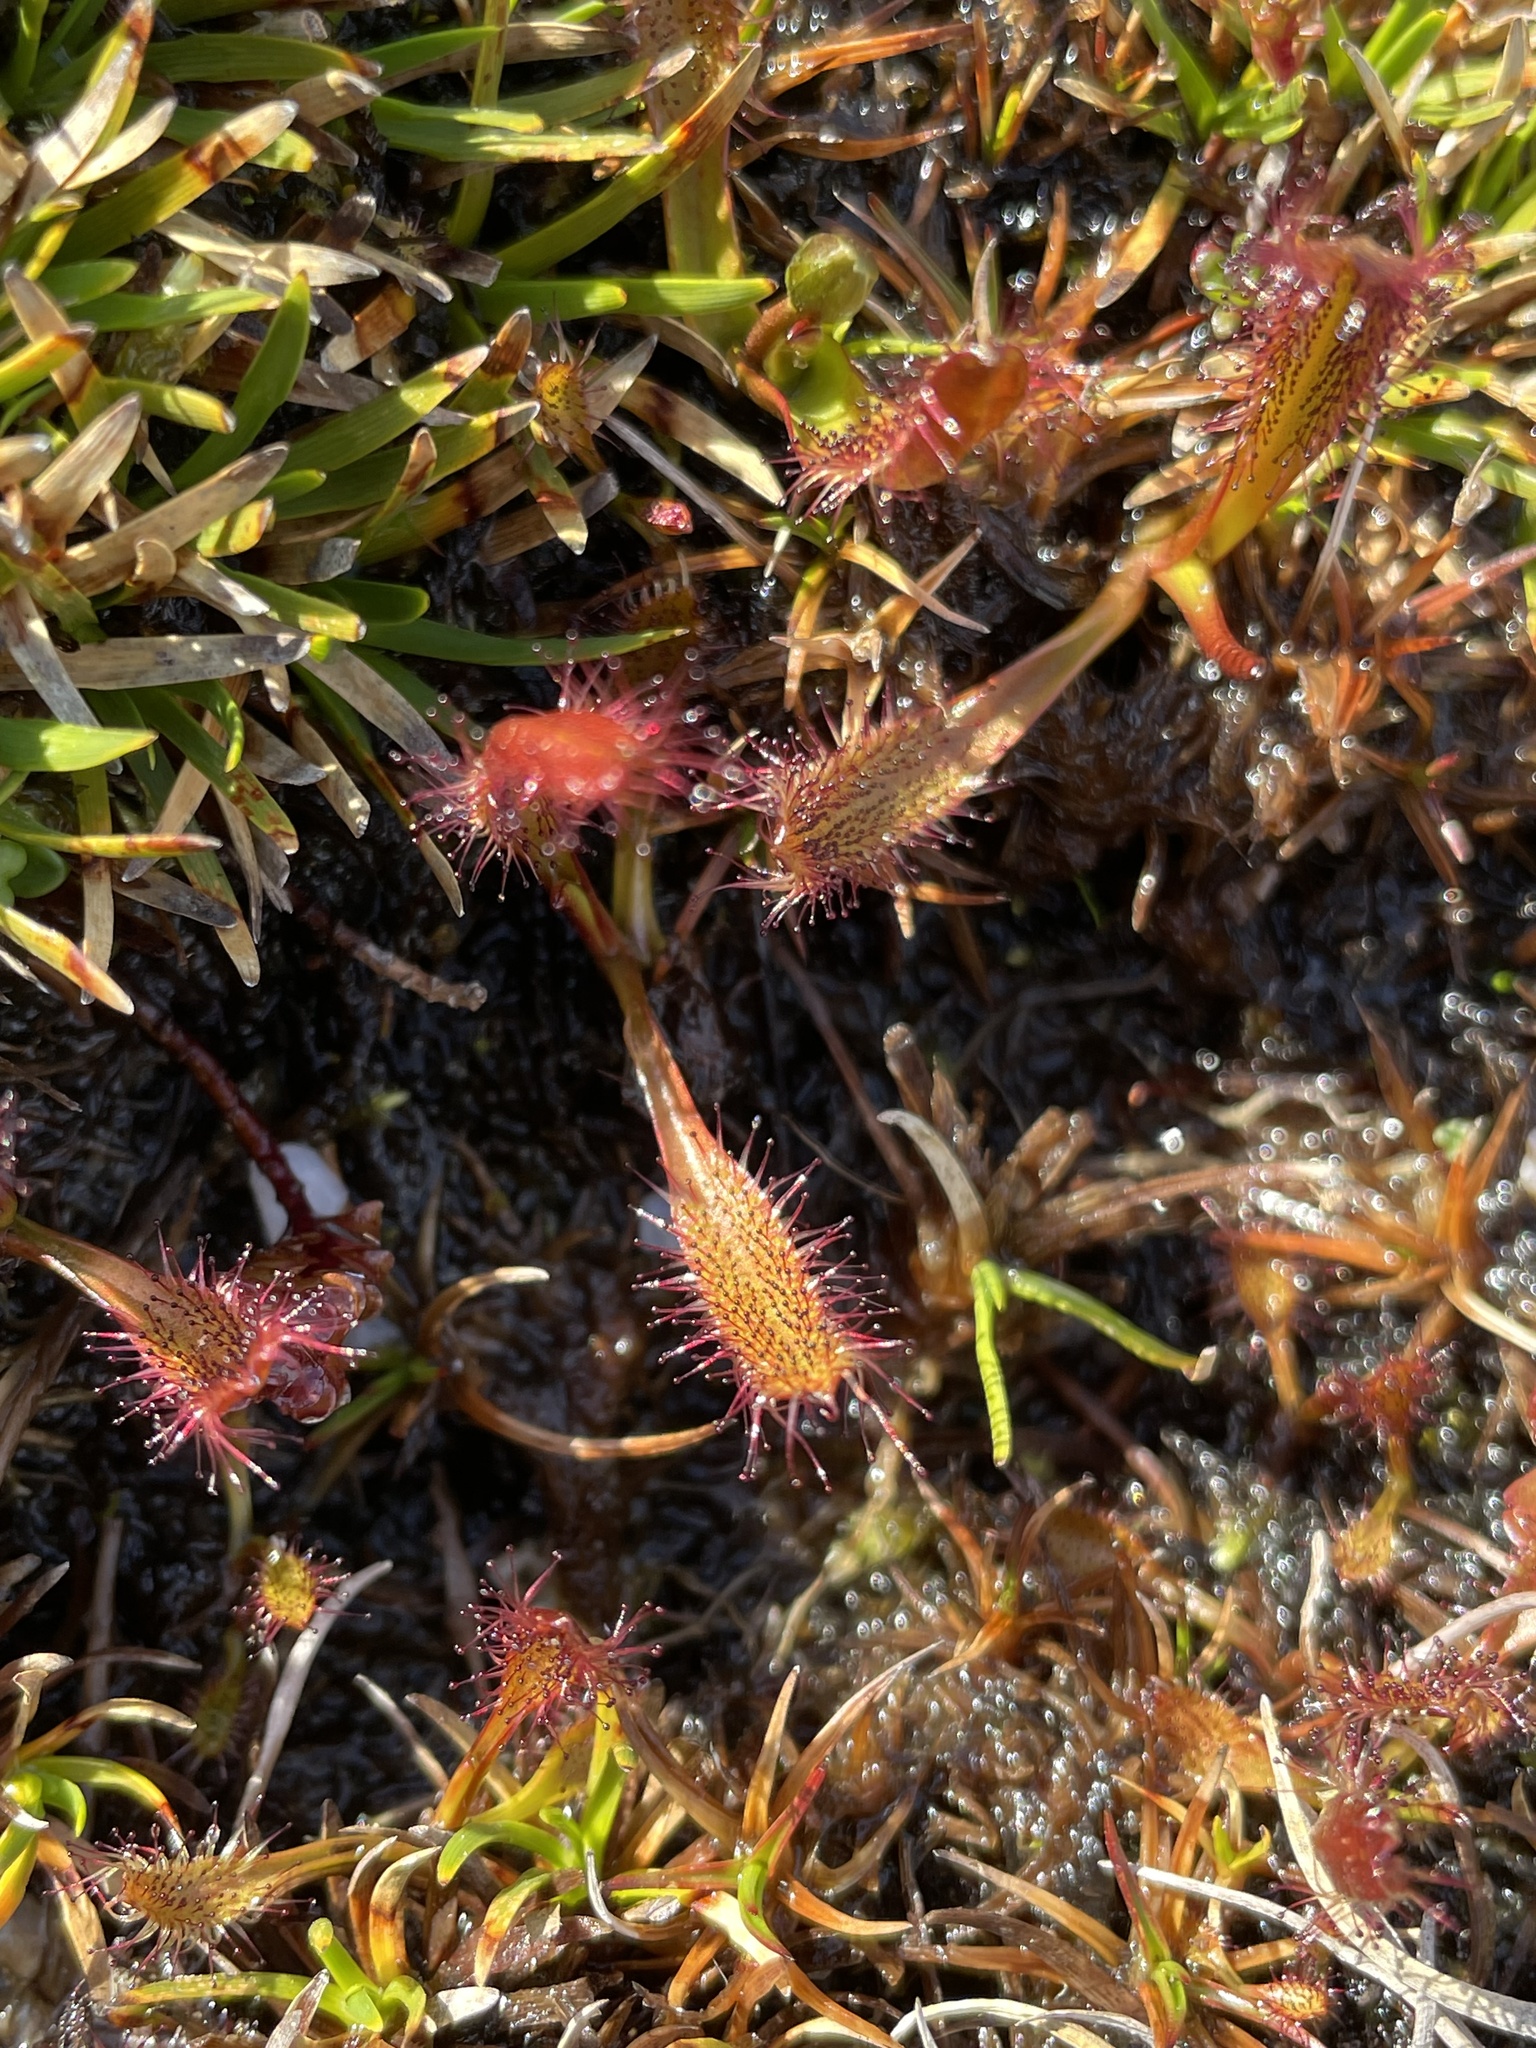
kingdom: Plantae
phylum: Tracheophyta
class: Magnoliopsida
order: Caryophyllales
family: Droseraceae
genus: Drosera
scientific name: Drosera arcturi
